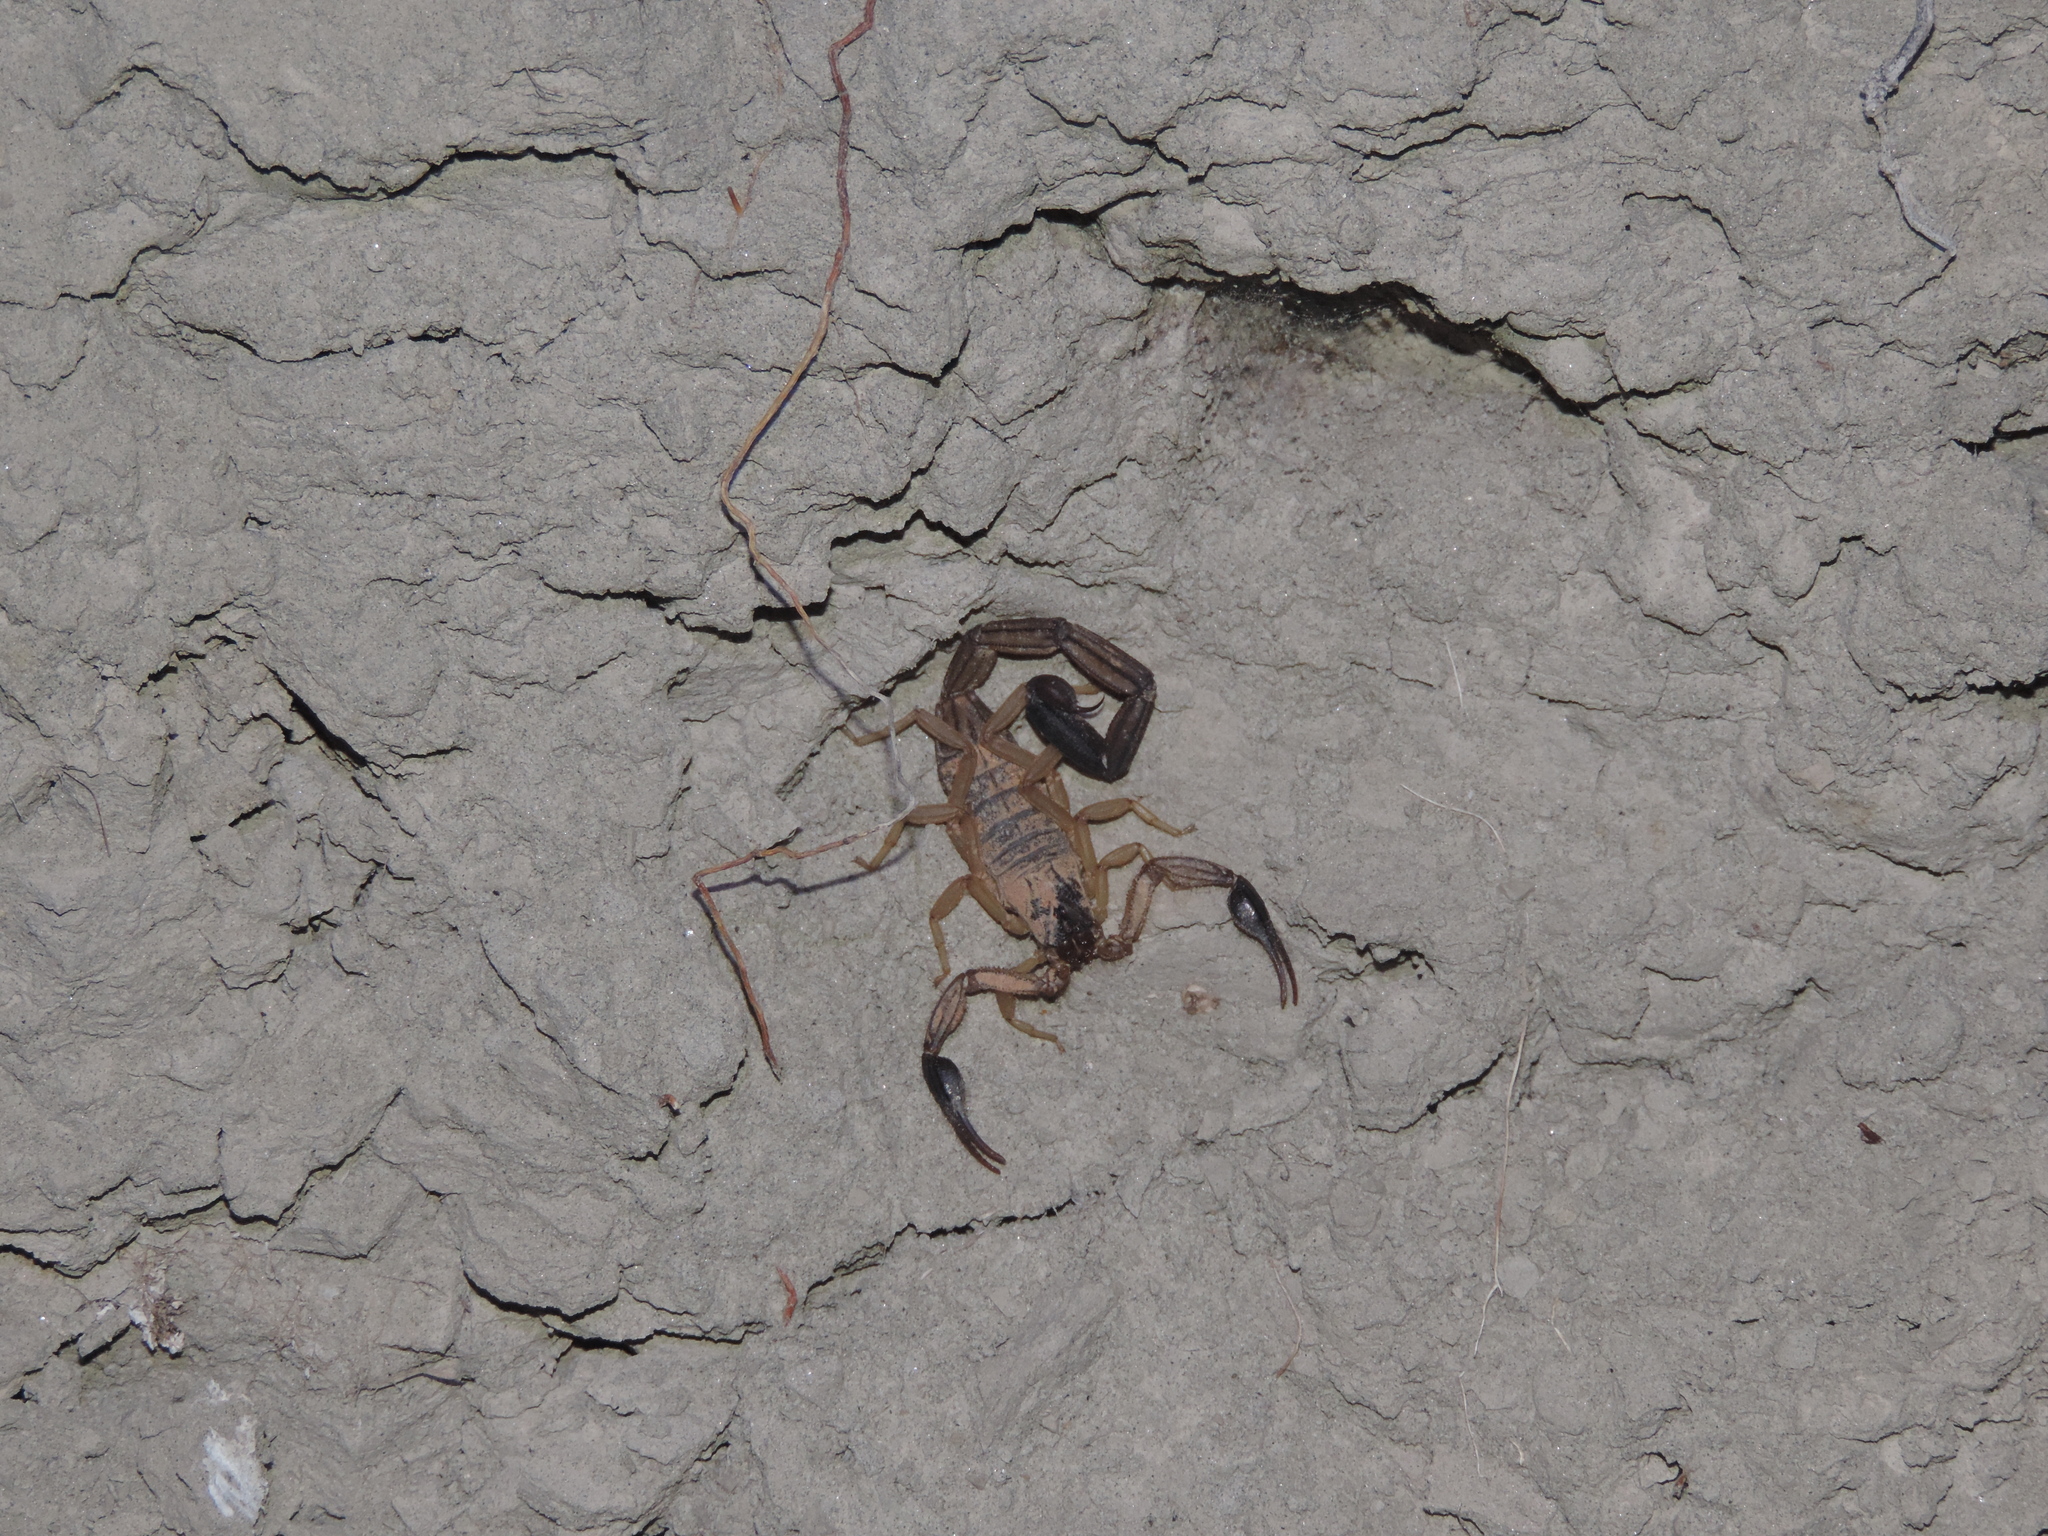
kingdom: Animalia
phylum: Arthropoda
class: Arachnida
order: Scorpiones
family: Buthidae
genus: Centruroides
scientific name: Centruroides edwardsii
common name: Scorpions
